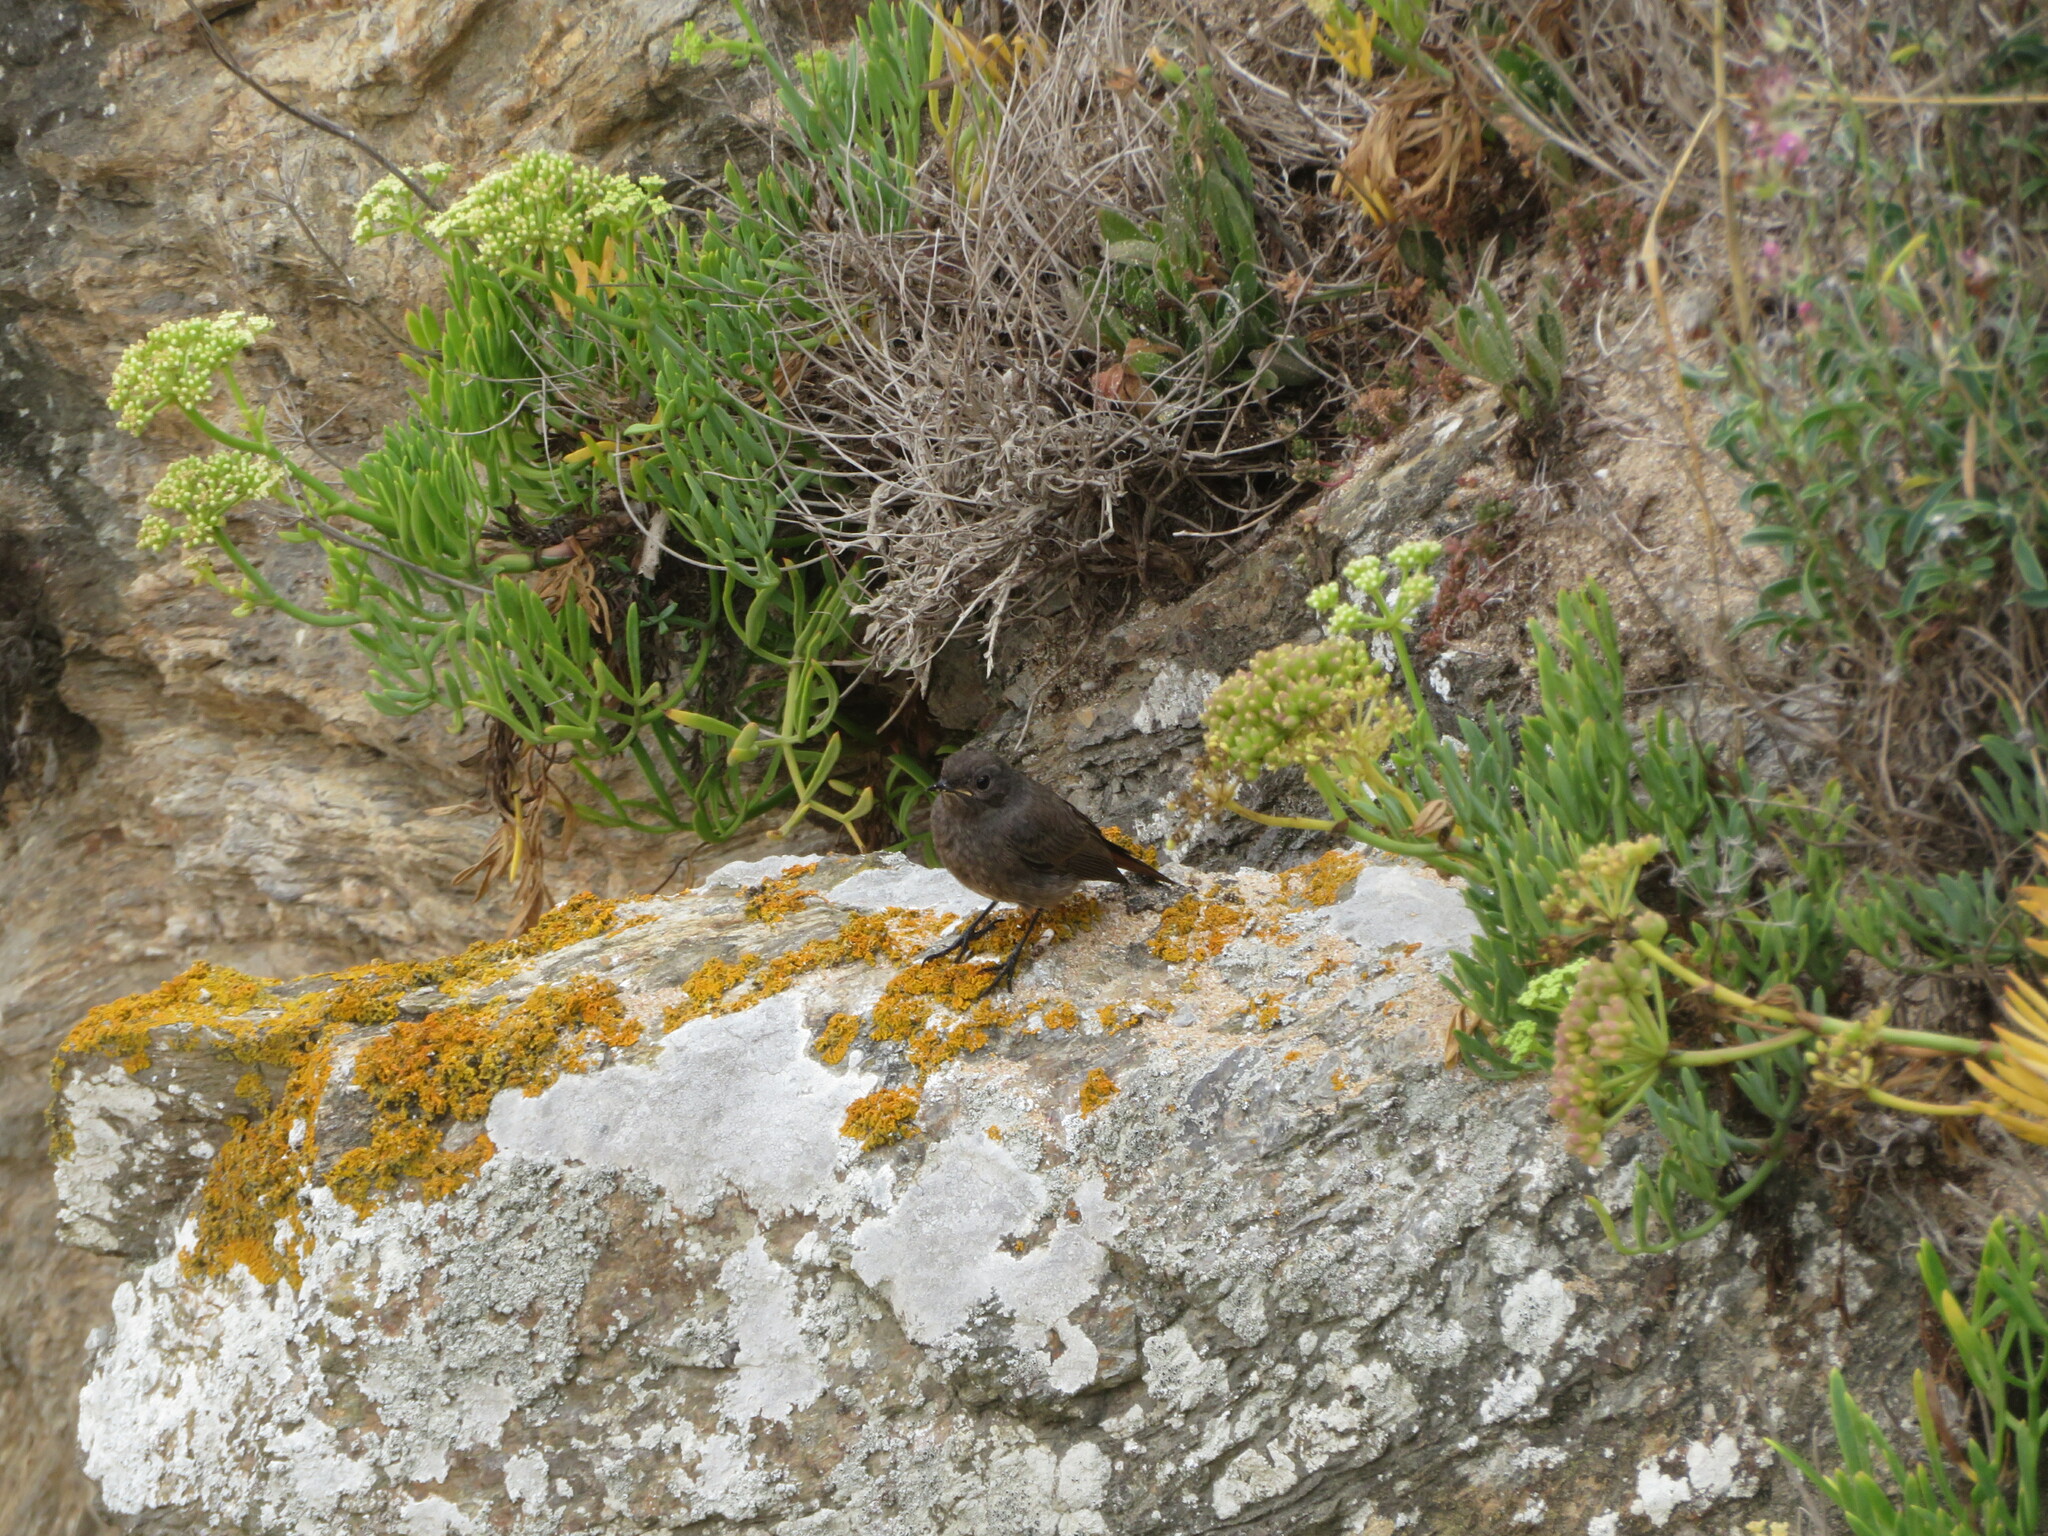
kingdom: Animalia
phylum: Chordata
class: Aves
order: Passeriformes
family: Muscicapidae
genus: Phoenicurus
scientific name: Phoenicurus ochruros
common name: Black redstart
